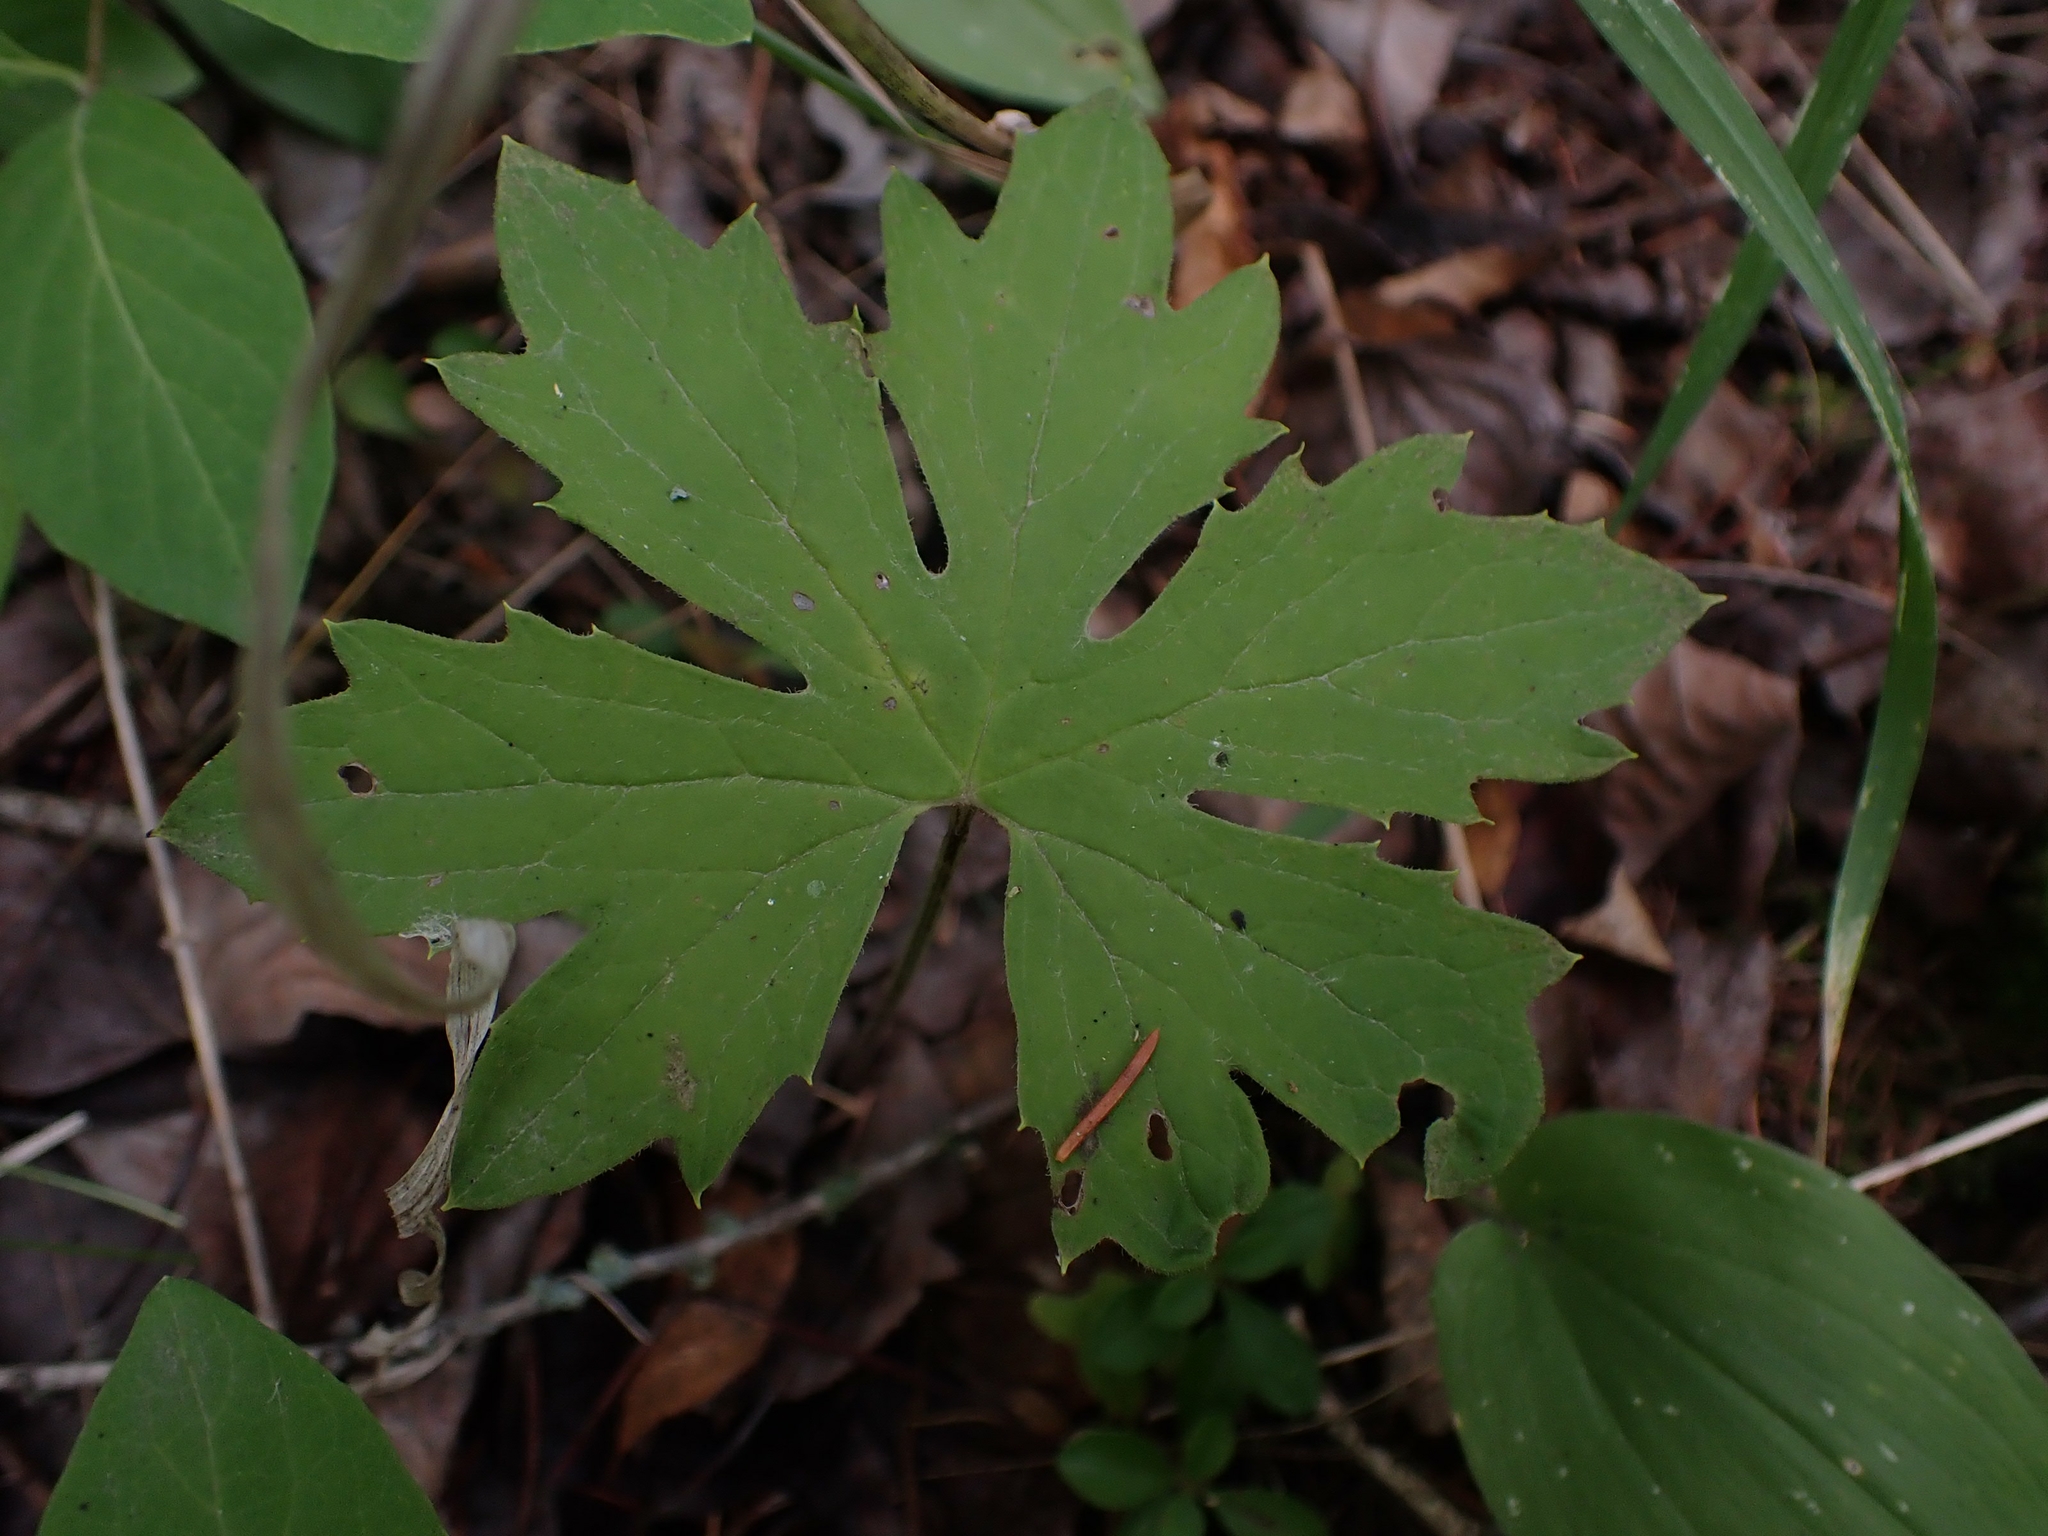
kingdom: Plantae
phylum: Tracheophyta
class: Magnoliopsida
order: Asterales
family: Asteraceae
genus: Petasites
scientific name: Petasites frigidus
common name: Arctic butterbur
